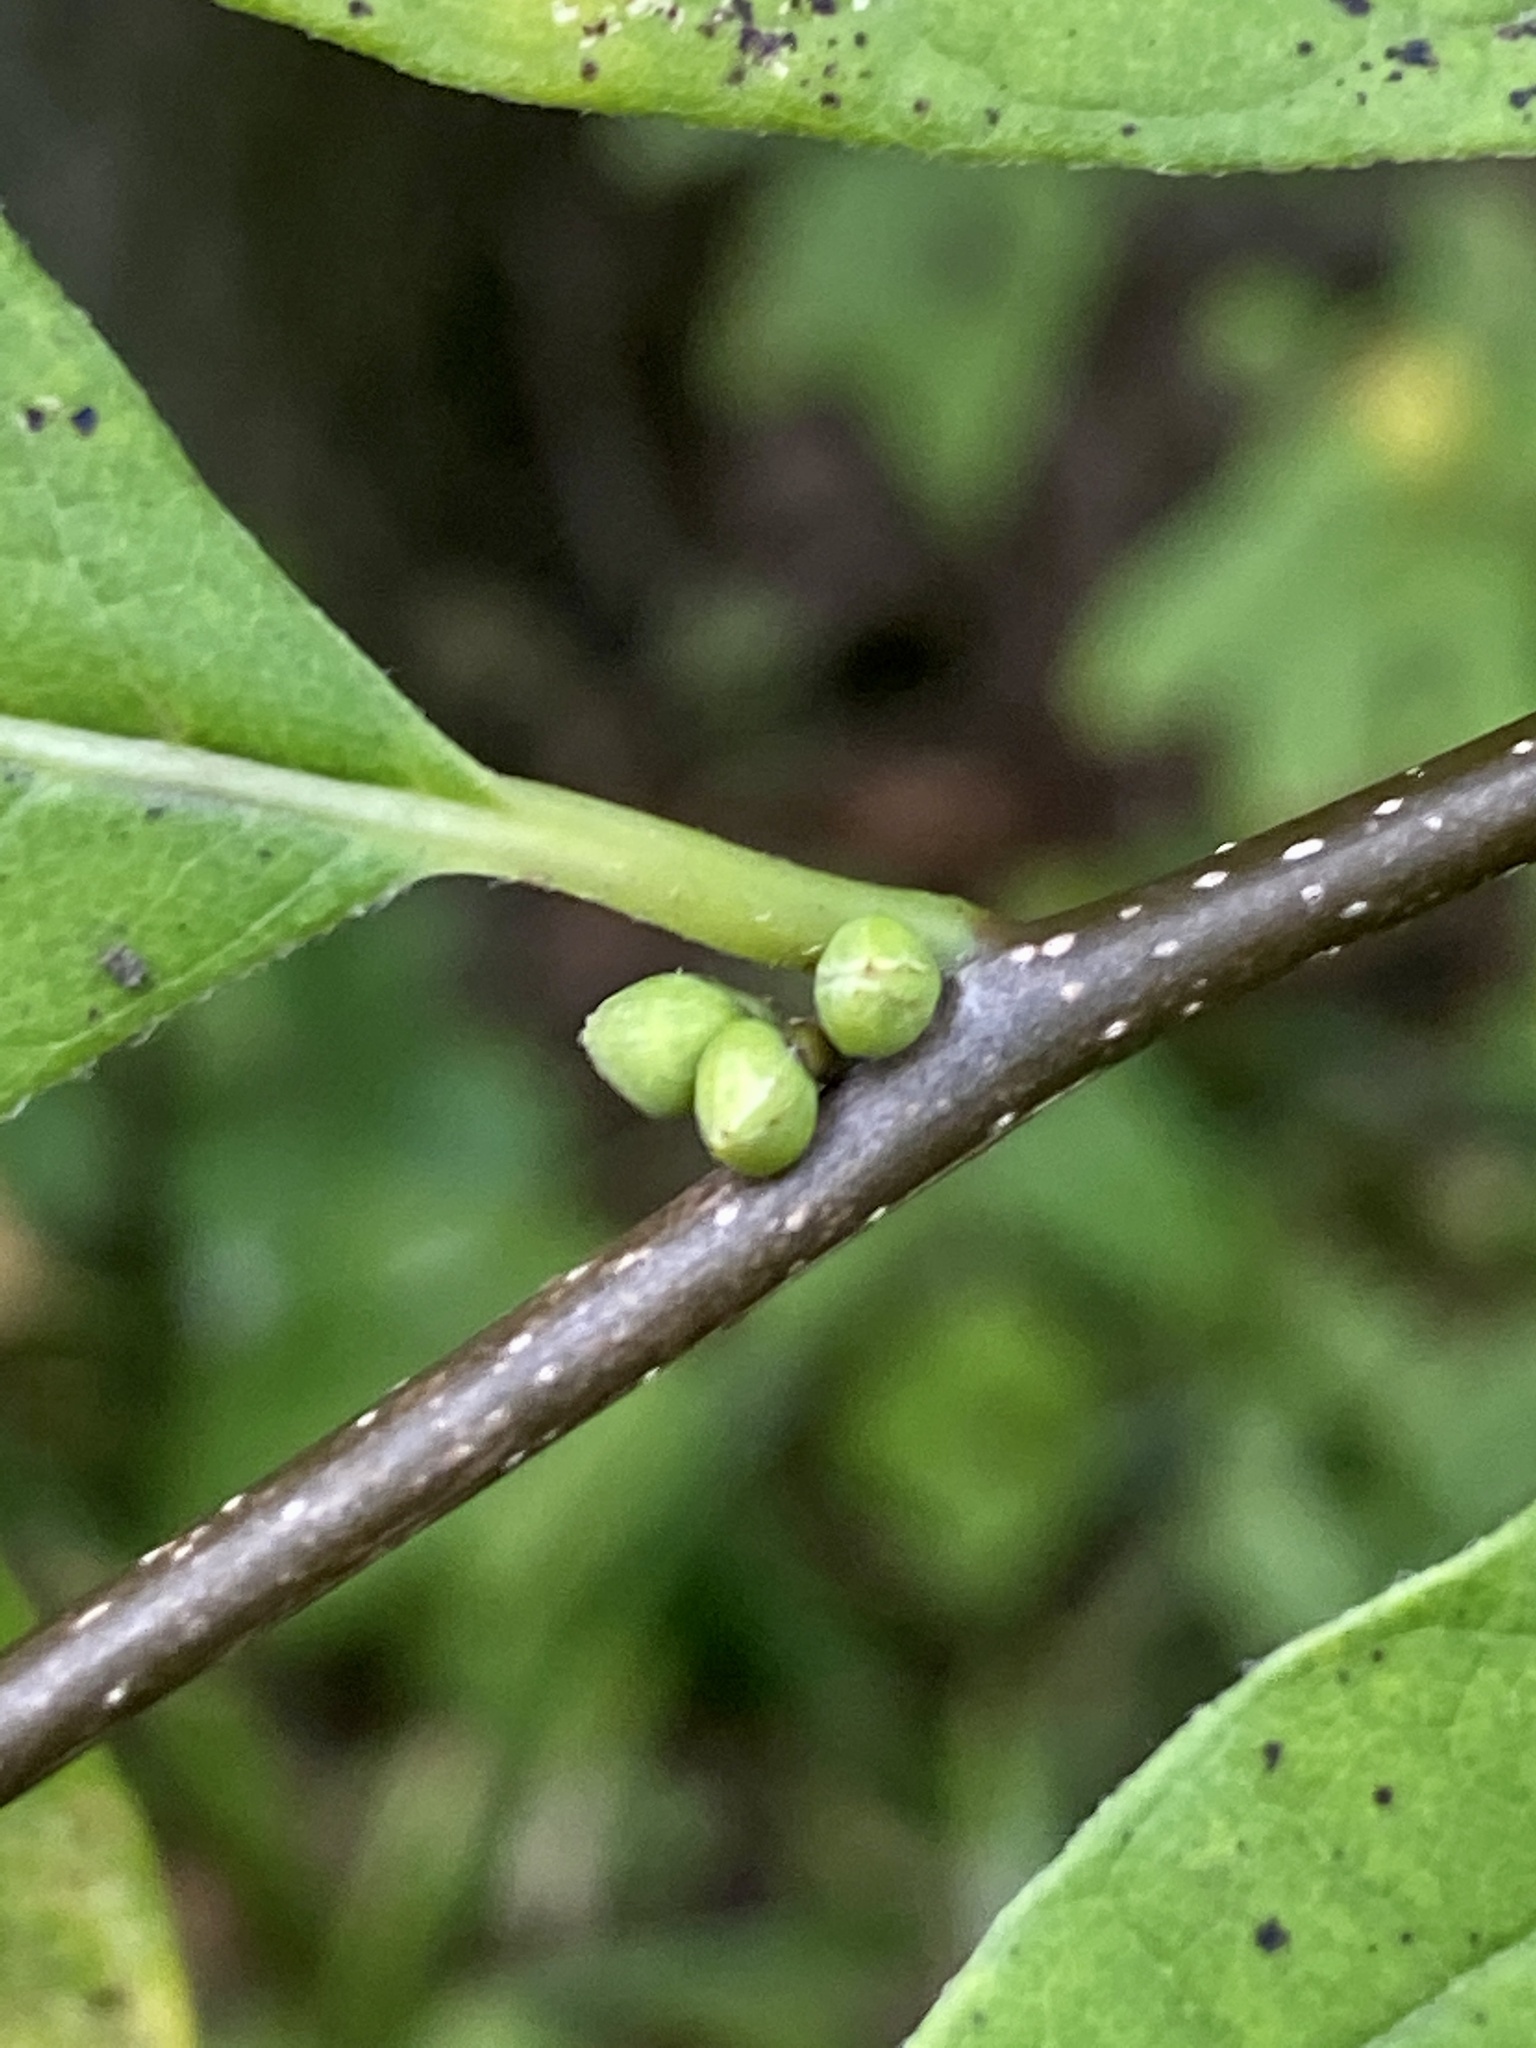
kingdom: Plantae
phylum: Tracheophyta
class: Magnoliopsida
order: Laurales
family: Lauraceae
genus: Lindera
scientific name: Lindera benzoin
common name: Spicebush
